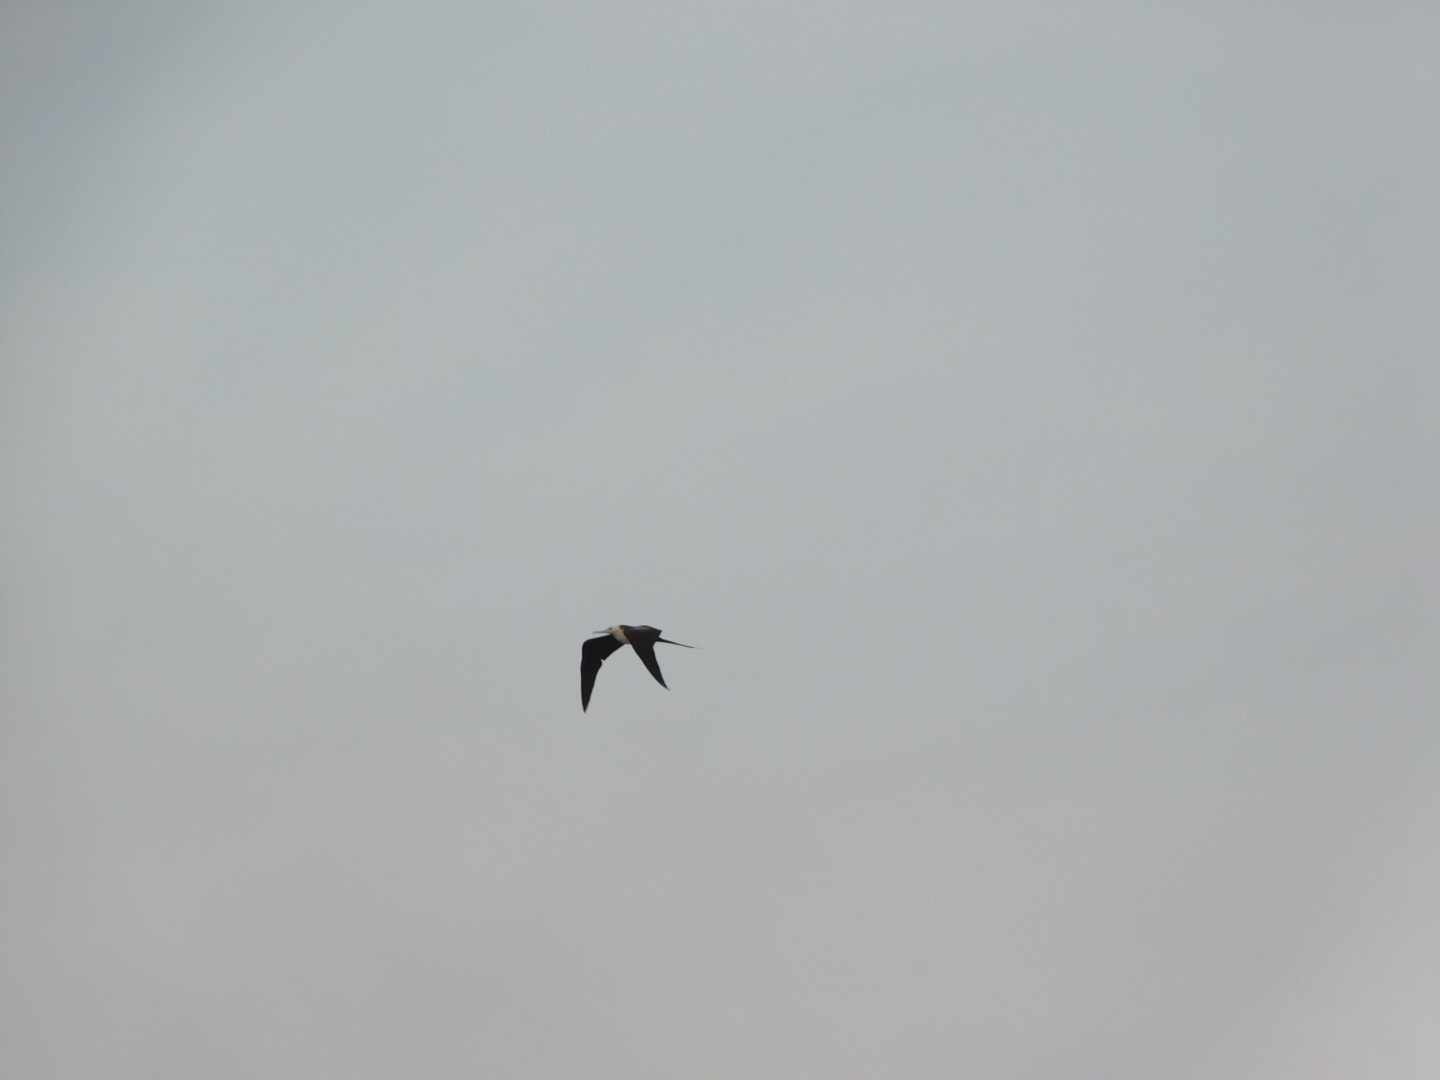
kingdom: Animalia
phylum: Chordata
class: Aves
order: Suliformes
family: Fregatidae
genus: Fregata
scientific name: Fregata magnificens
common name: Magnificent frigatebird
